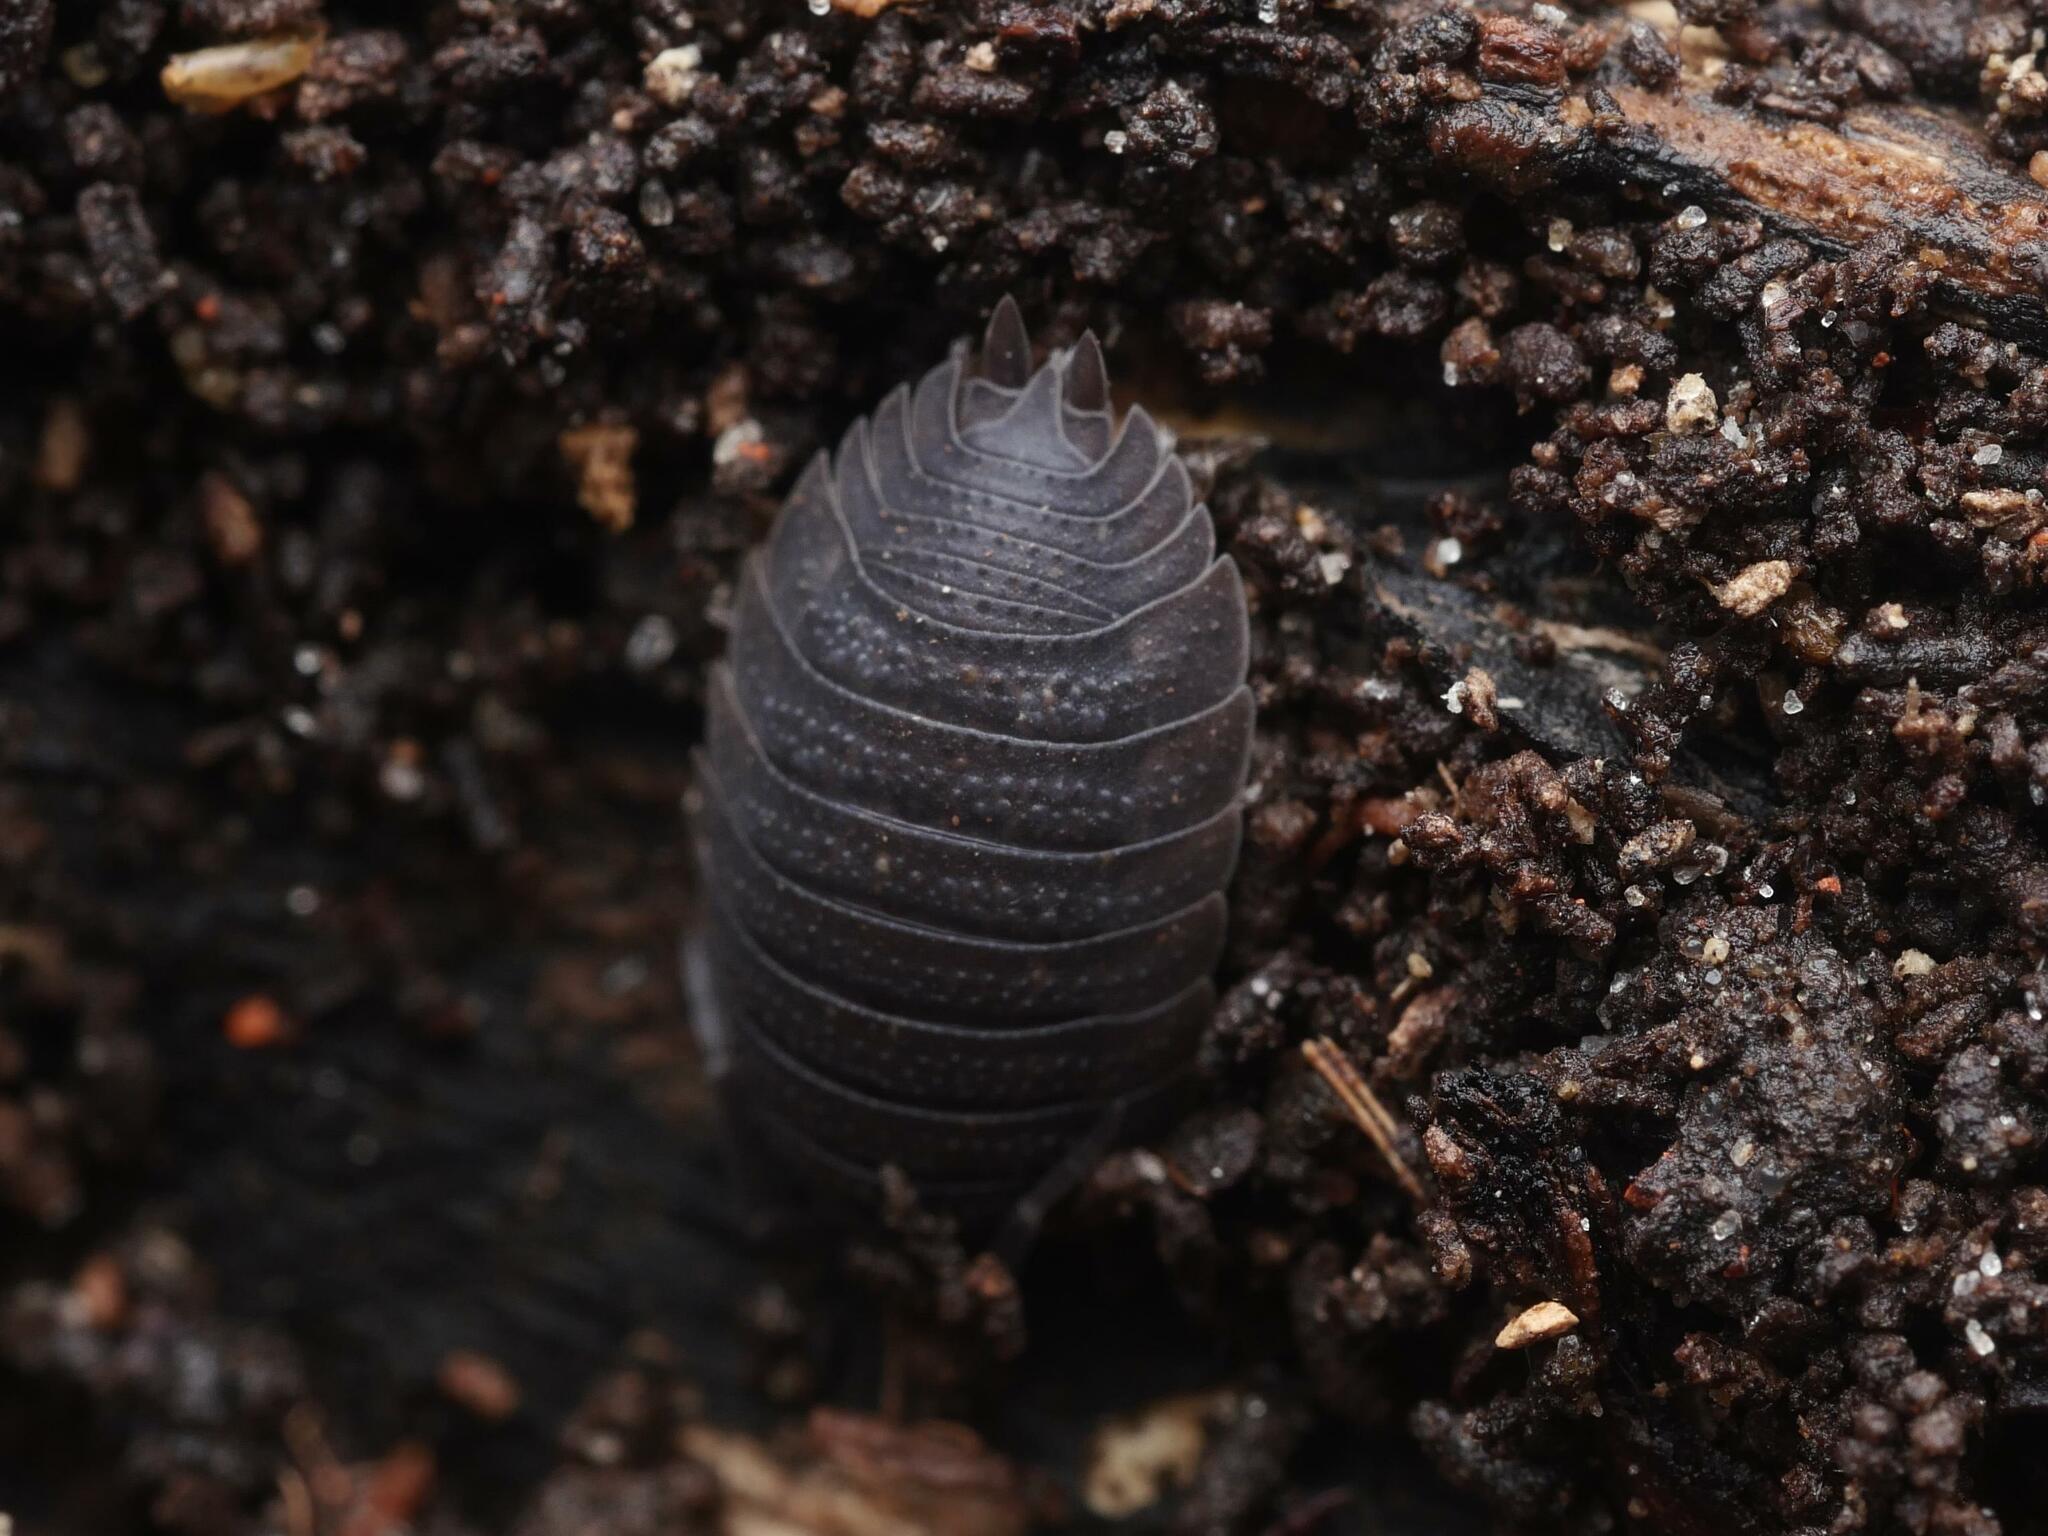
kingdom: Animalia
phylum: Arthropoda
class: Malacostraca
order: Isopoda
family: Porcellionidae
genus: Porcellio
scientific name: Porcellio scaber
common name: Common rough woodlouse
